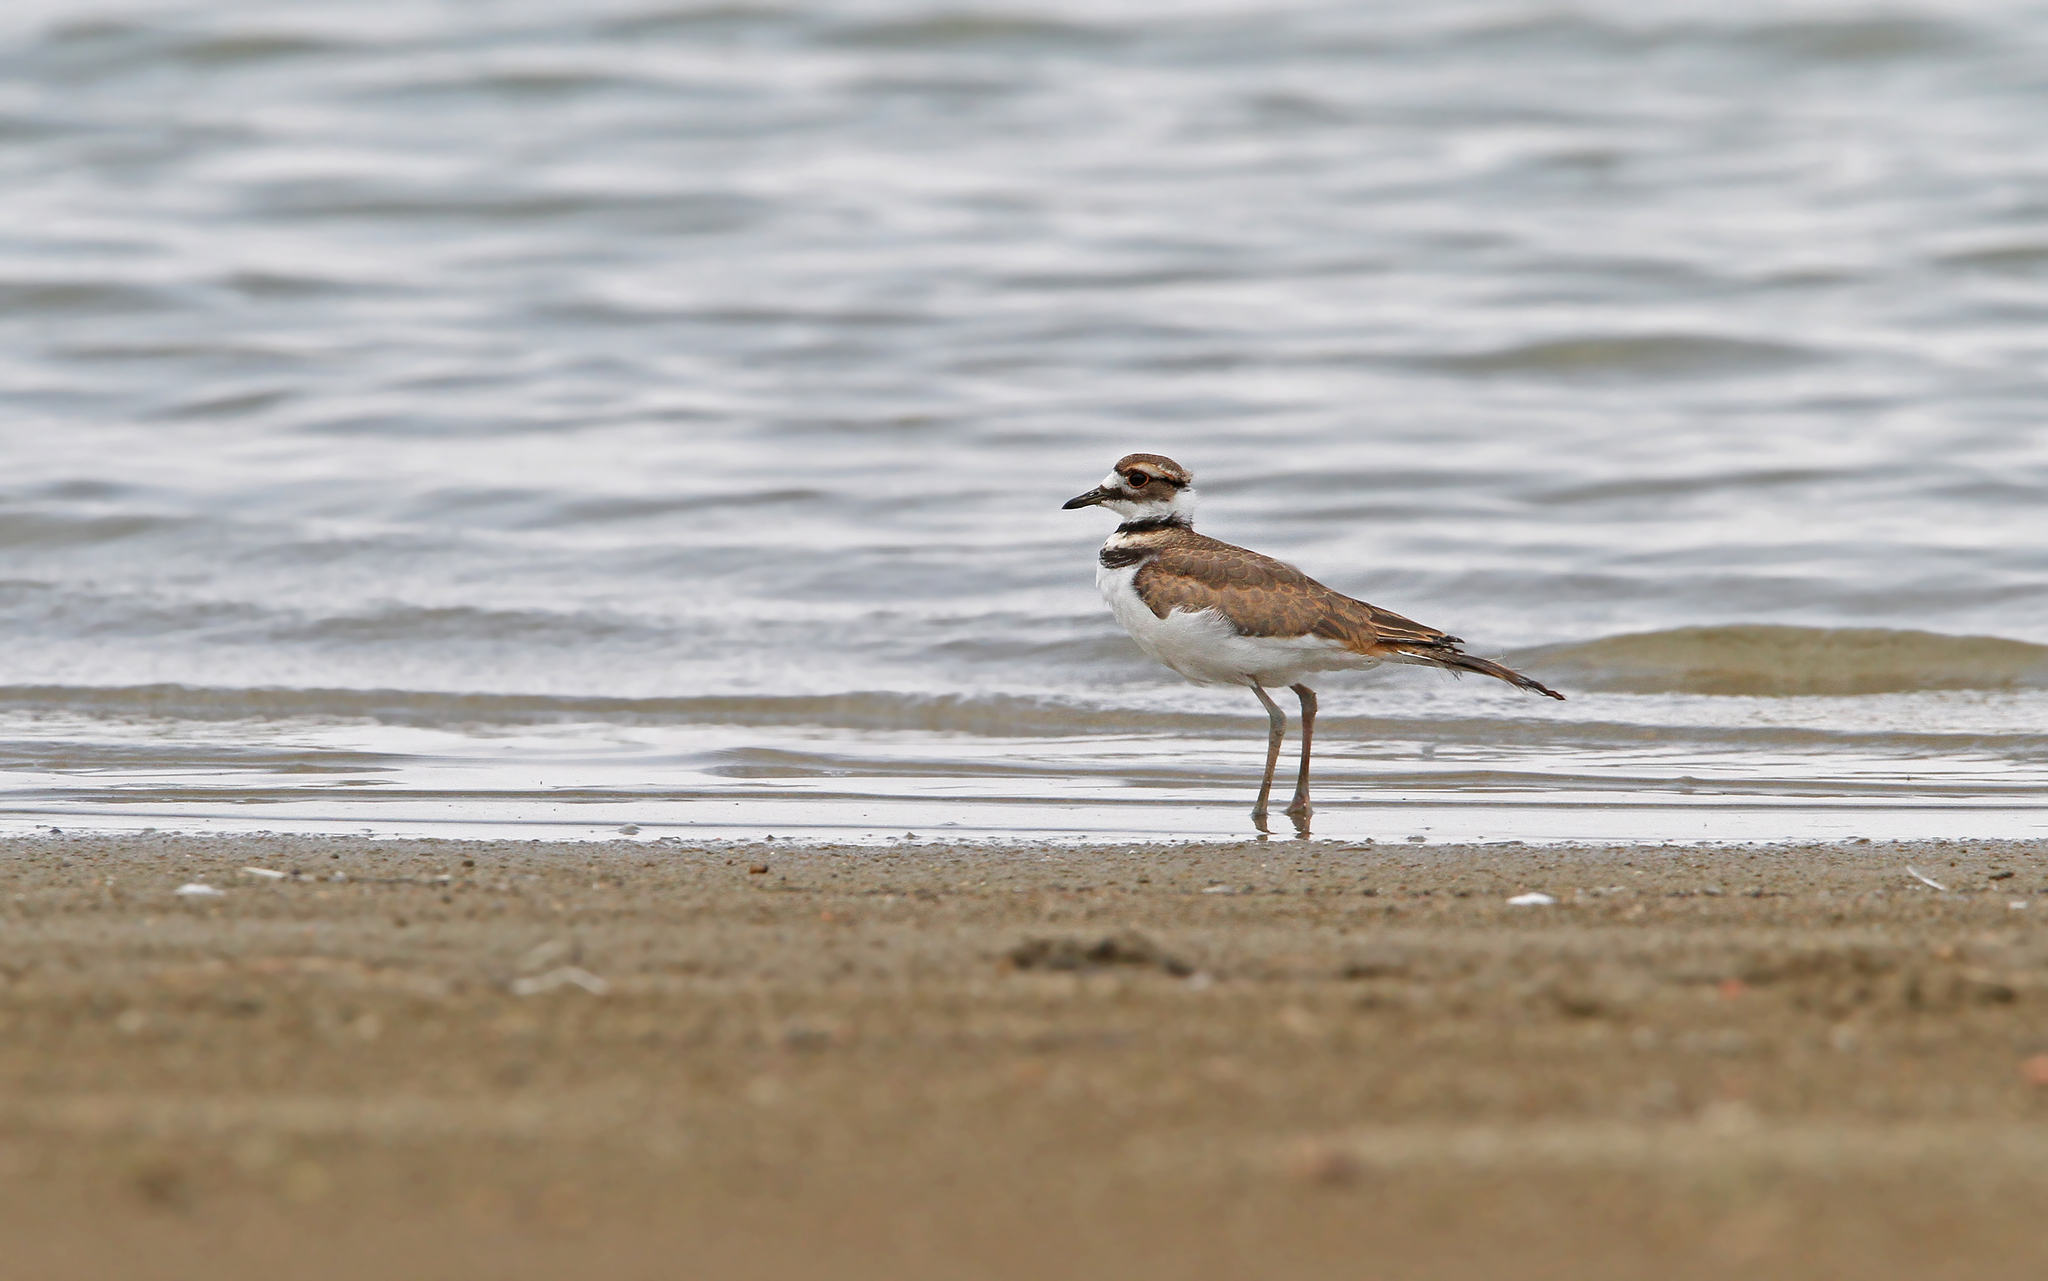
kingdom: Animalia
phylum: Chordata
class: Aves
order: Charadriiformes
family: Charadriidae
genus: Charadrius
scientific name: Charadrius vociferus
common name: Killdeer
